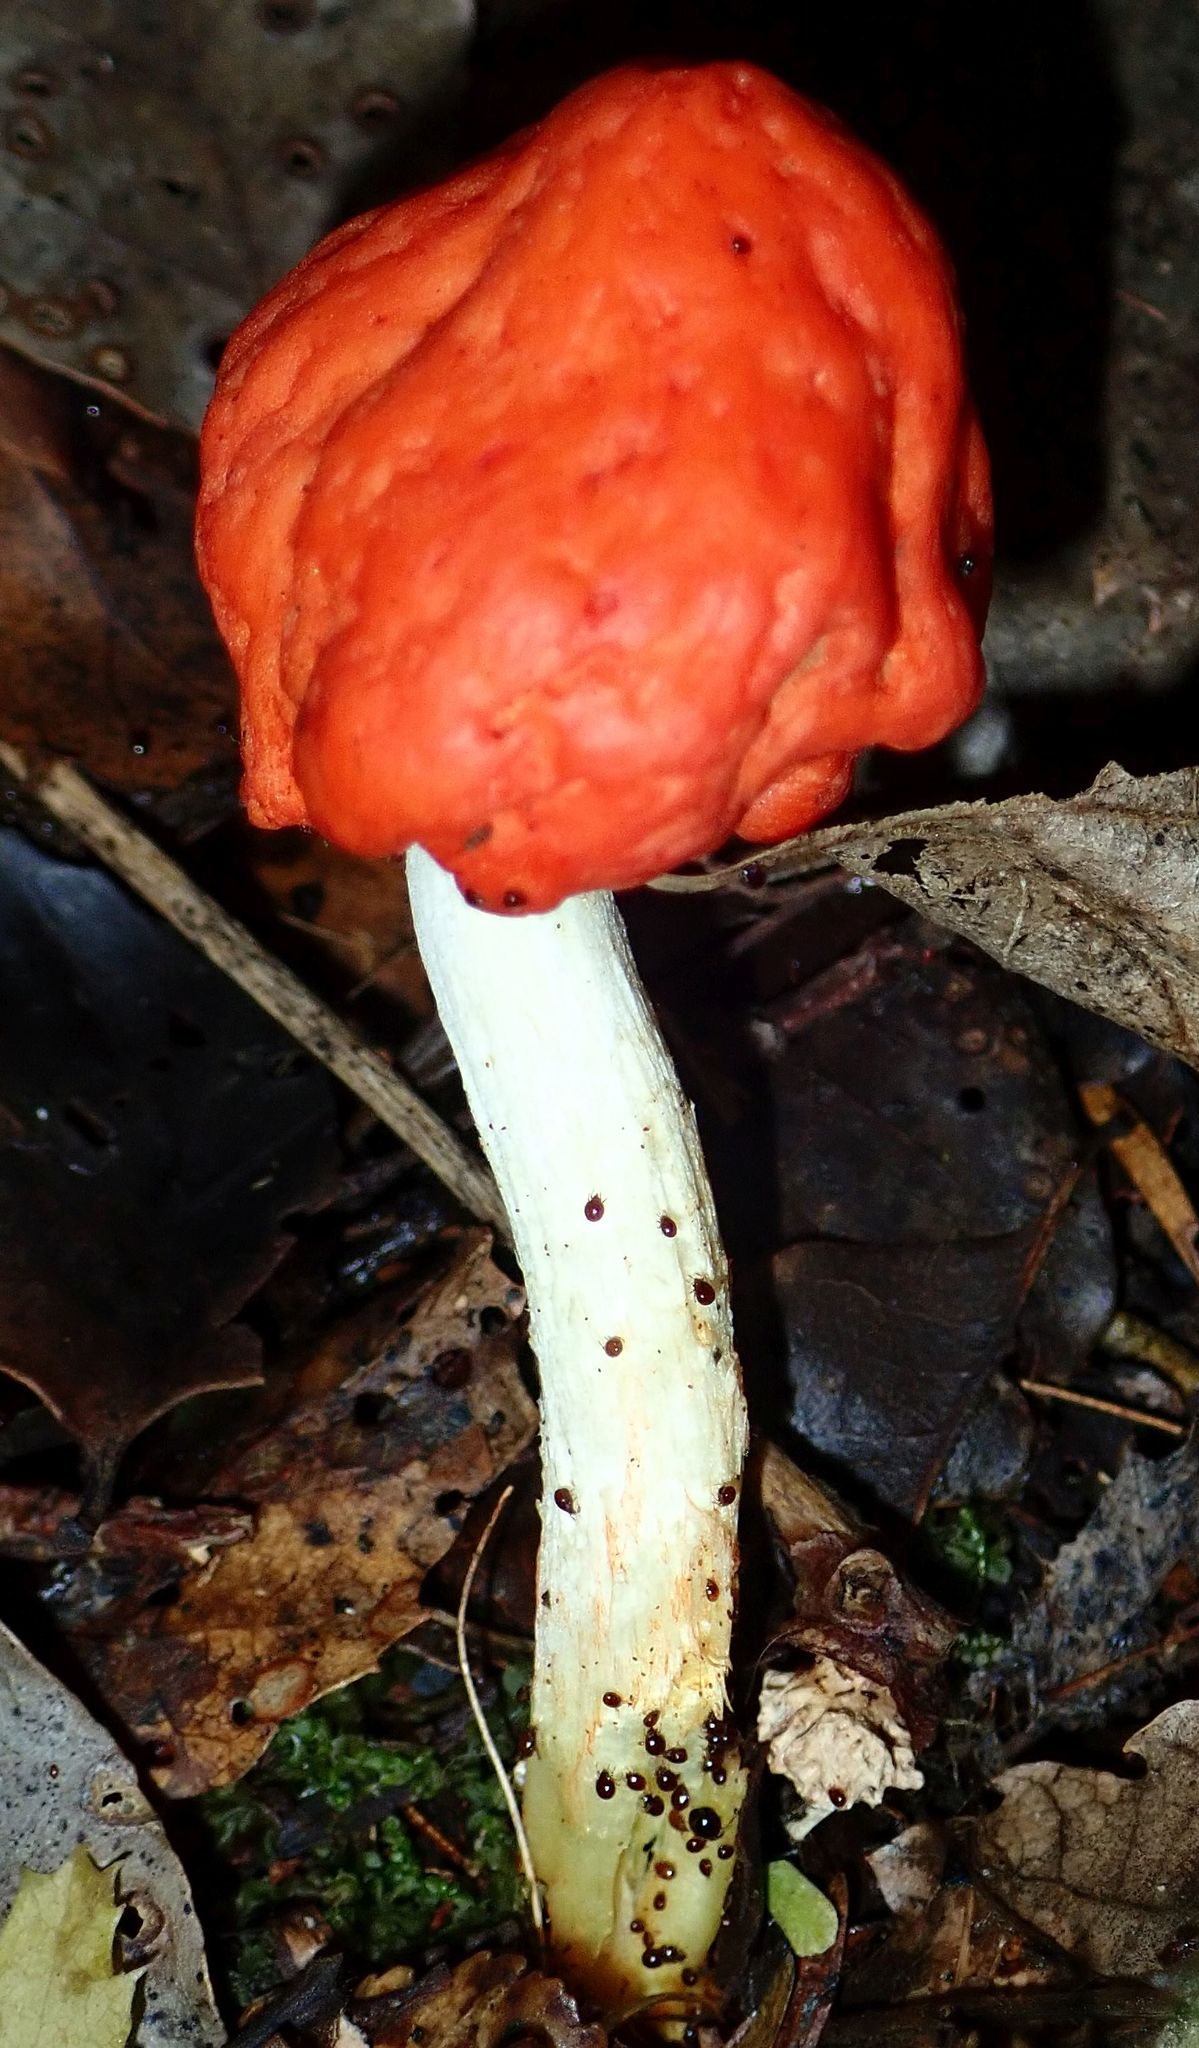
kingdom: Fungi
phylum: Basidiomycota
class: Agaricomycetes
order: Agaricales
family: Strophariaceae
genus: Leratiomyces
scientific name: Leratiomyces erythrocephalus
